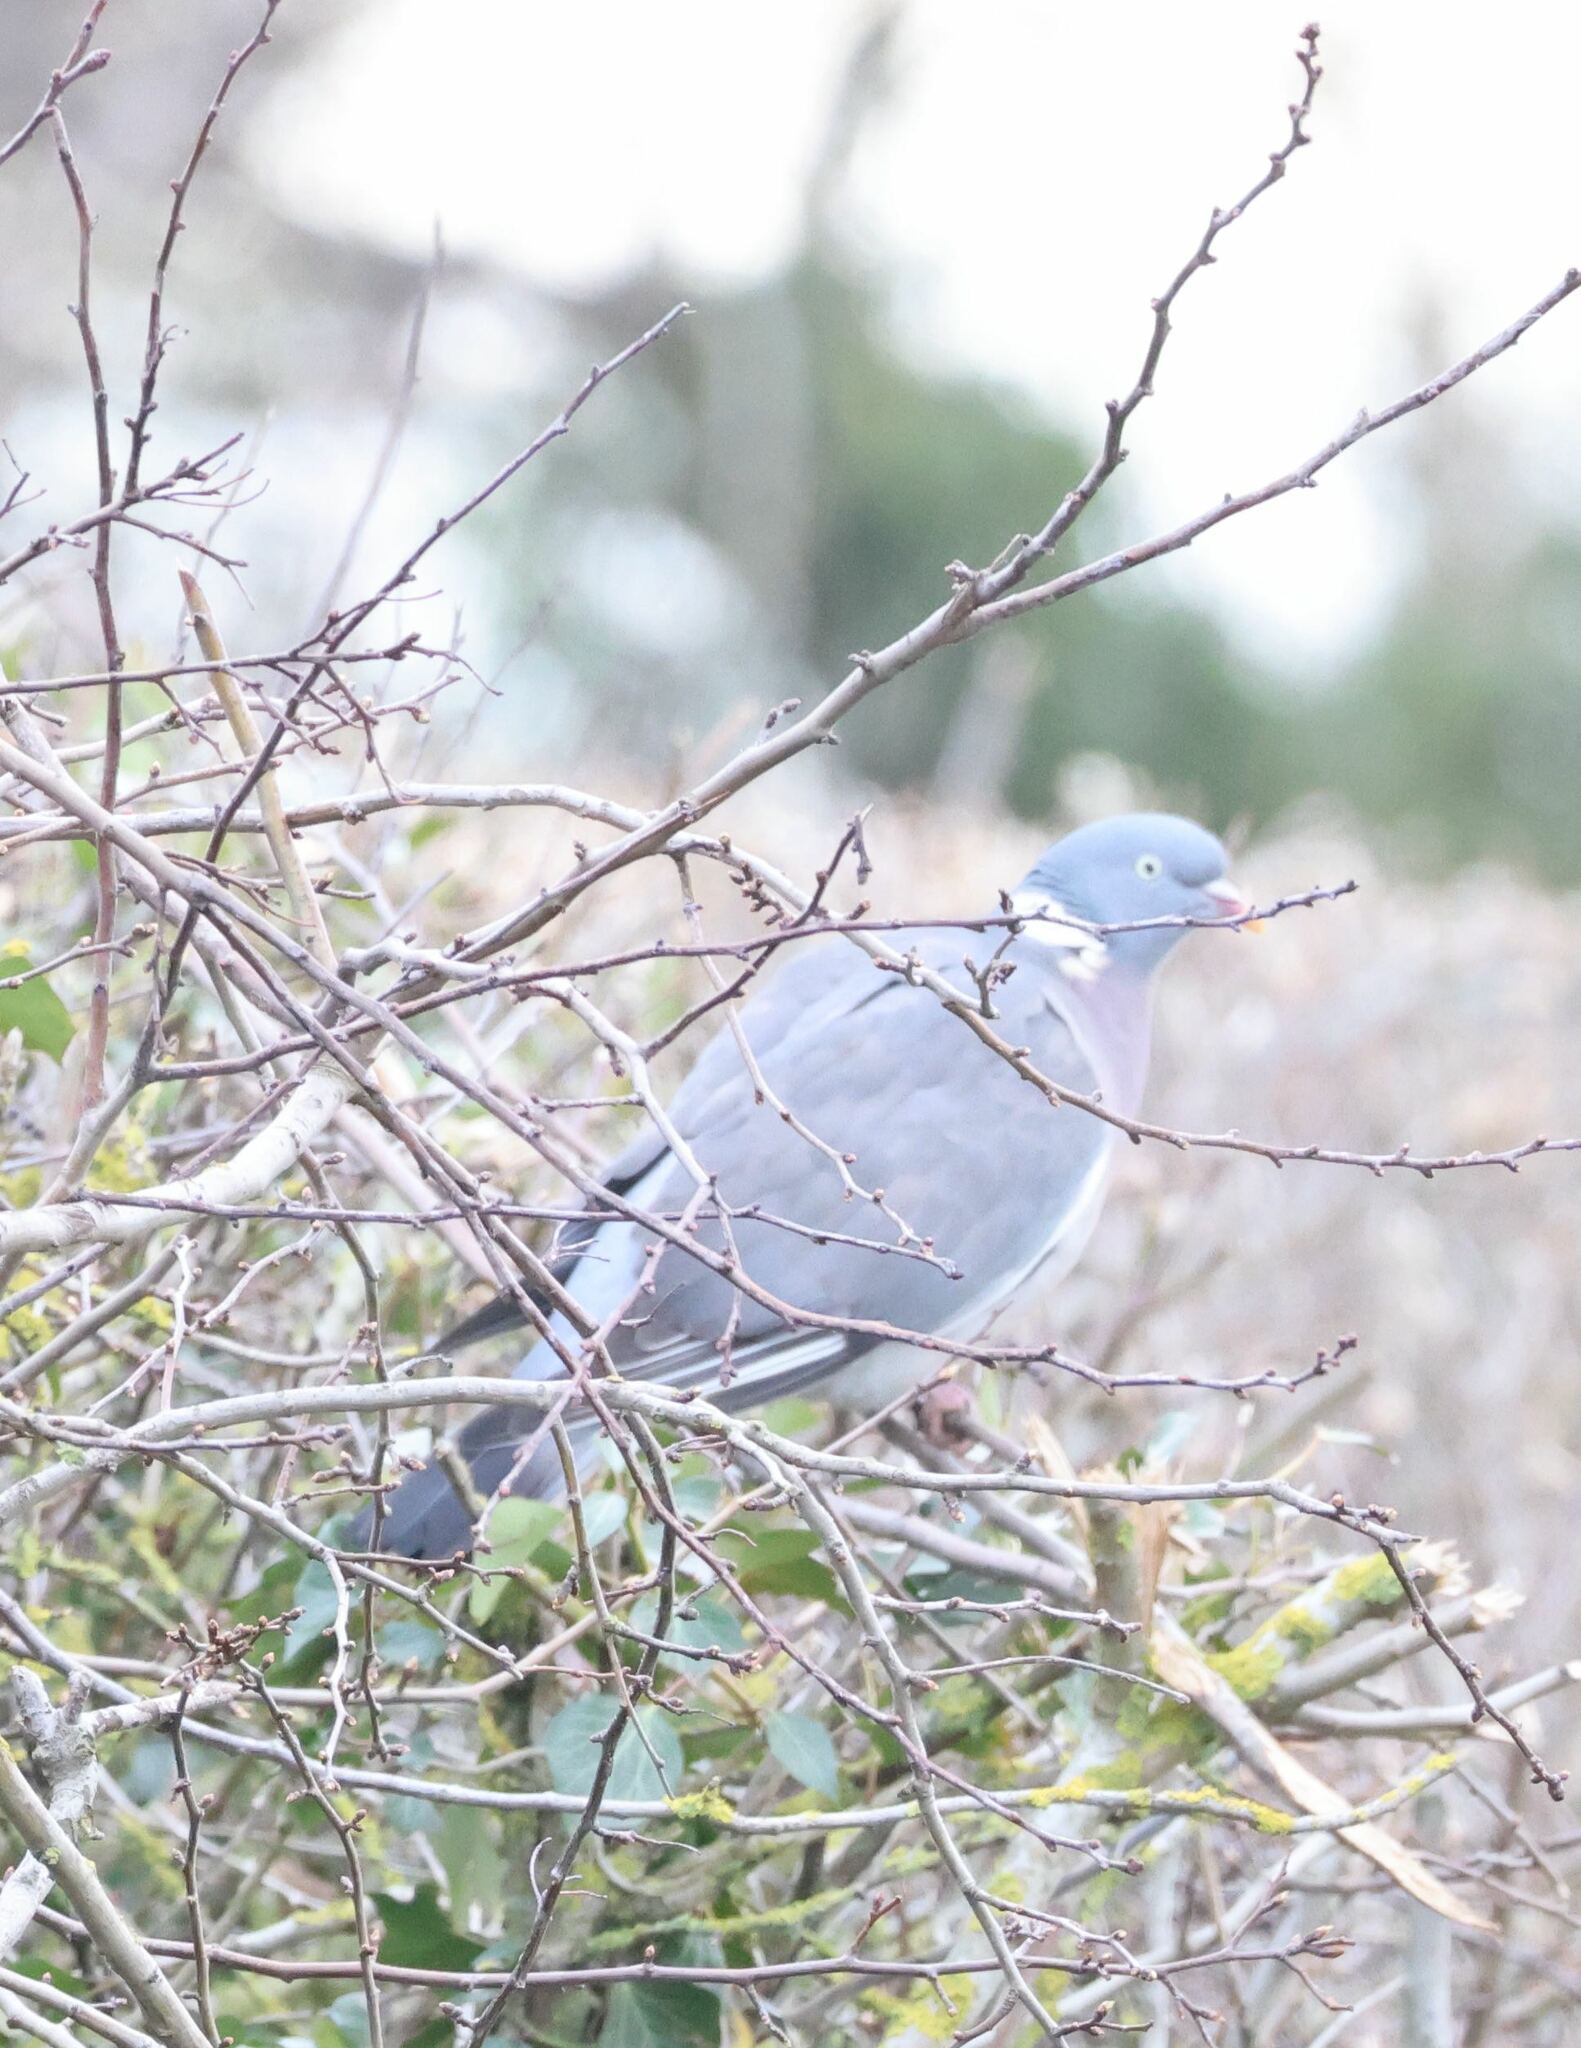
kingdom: Animalia
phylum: Chordata
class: Aves
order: Columbiformes
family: Columbidae
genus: Columba
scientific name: Columba palumbus
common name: Common wood pigeon
